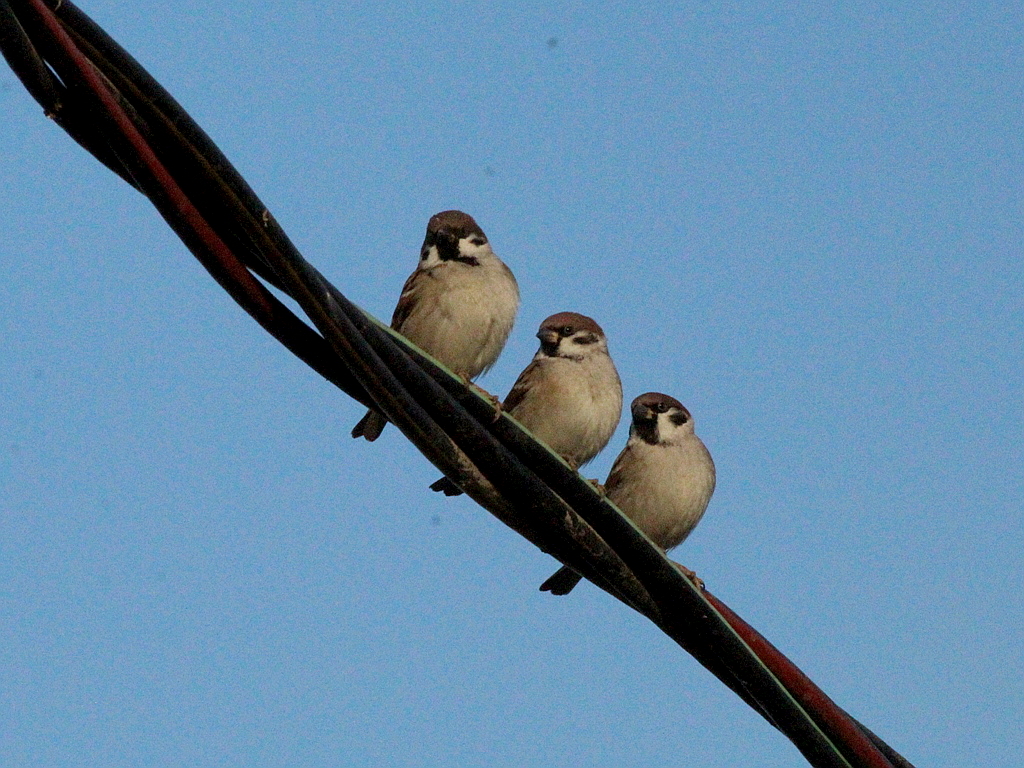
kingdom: Animalia
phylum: Chordata
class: Aves
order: Passeriformes
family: Passeridae
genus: Passer
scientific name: Passer montanus
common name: Eurasian tree sparrow
